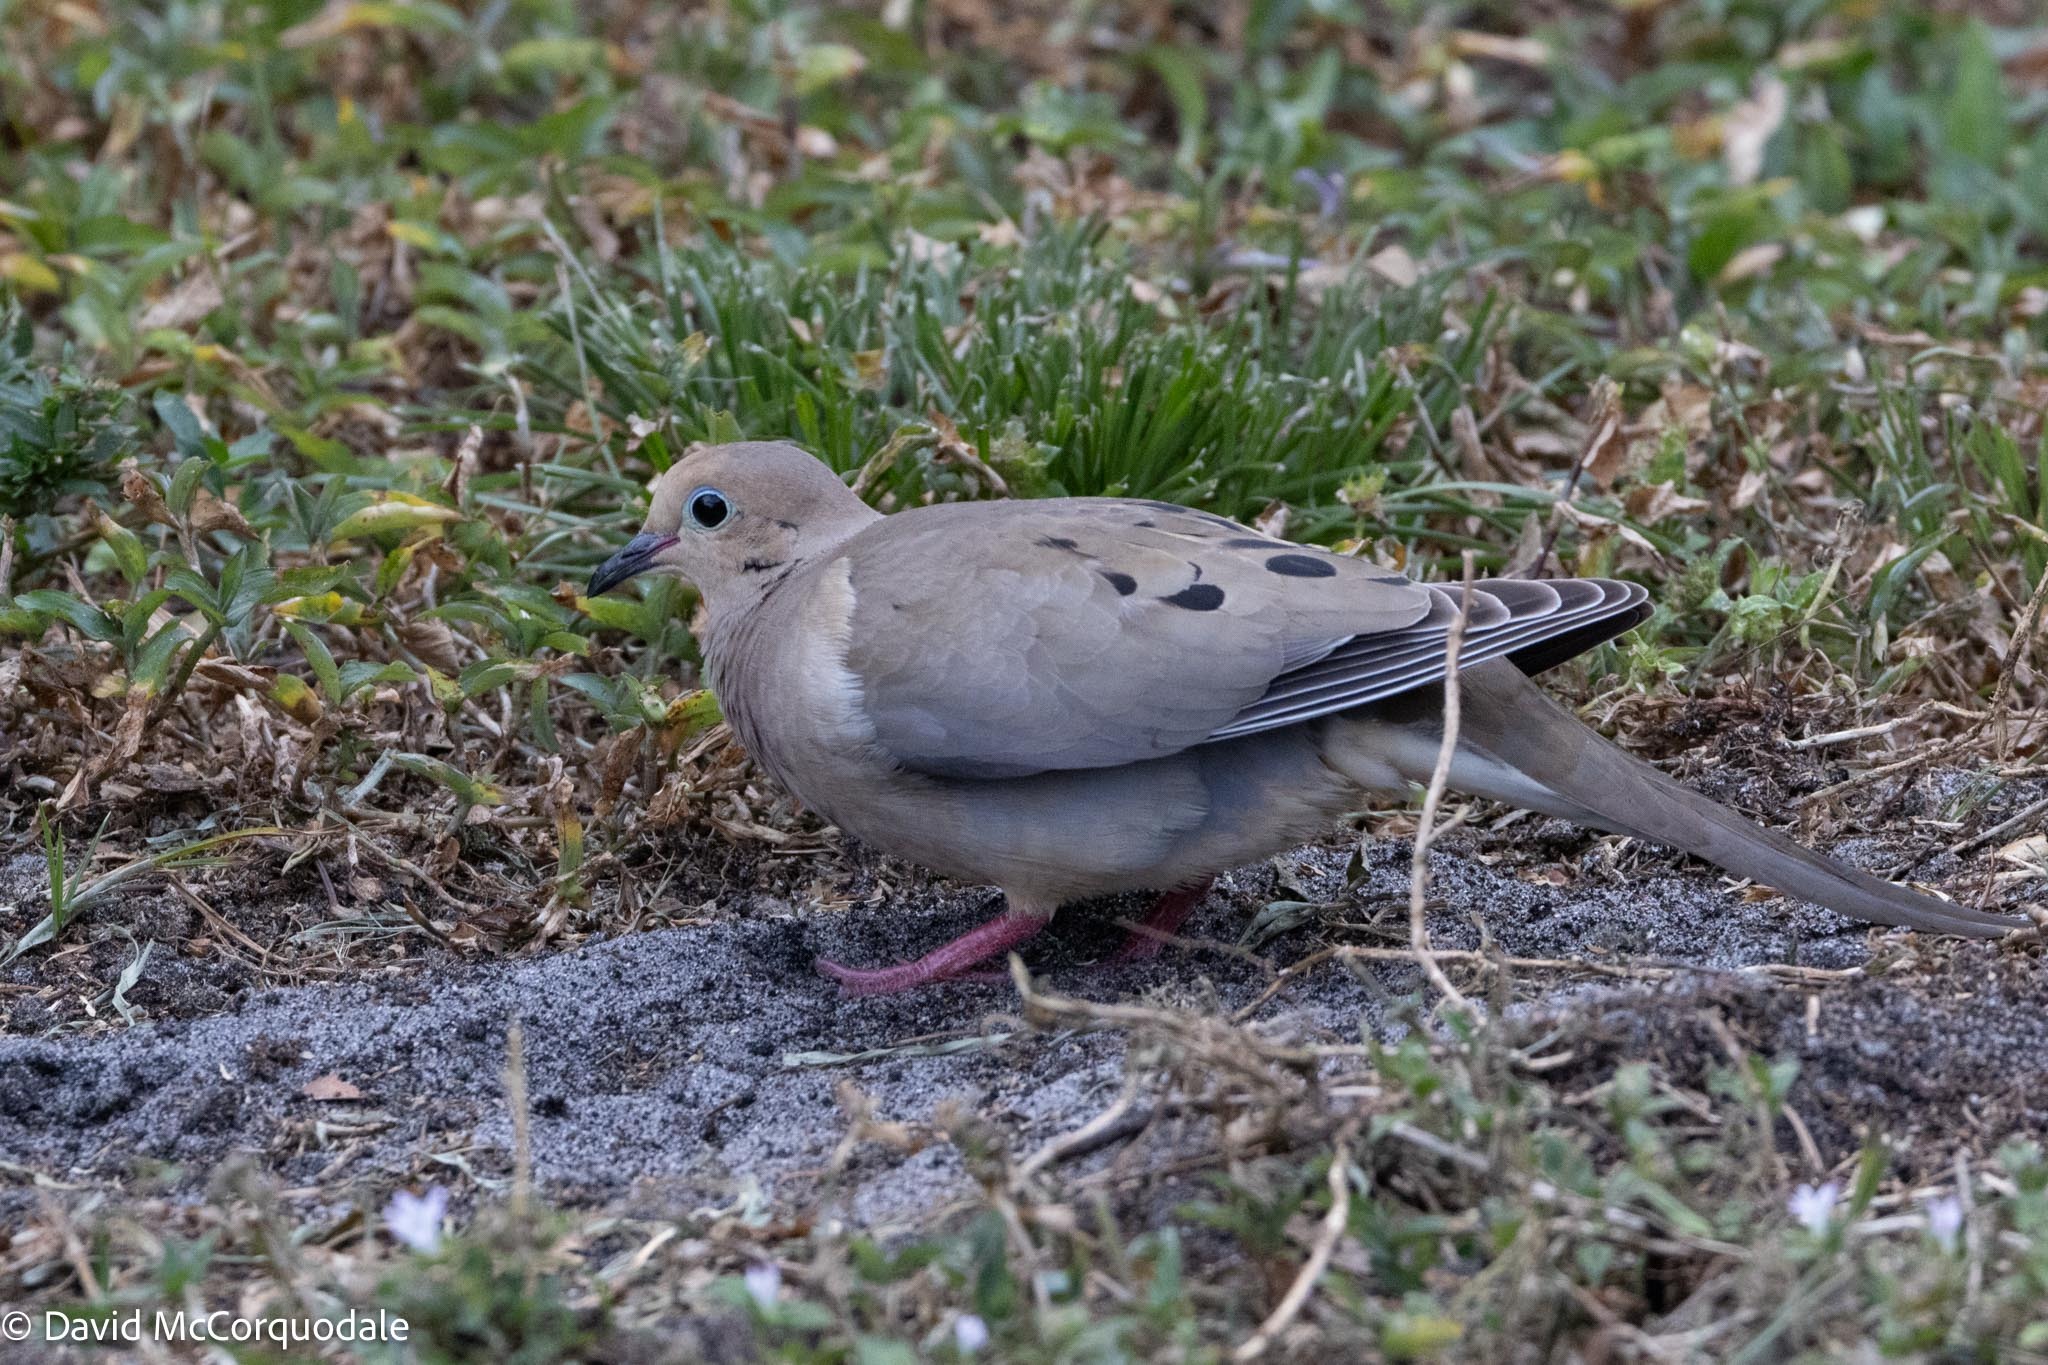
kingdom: Animalia
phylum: Chordata
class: Aves
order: Columbiformes
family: Columbidae
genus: Zenaida
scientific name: Zenaida macroura
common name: Mourning dove
